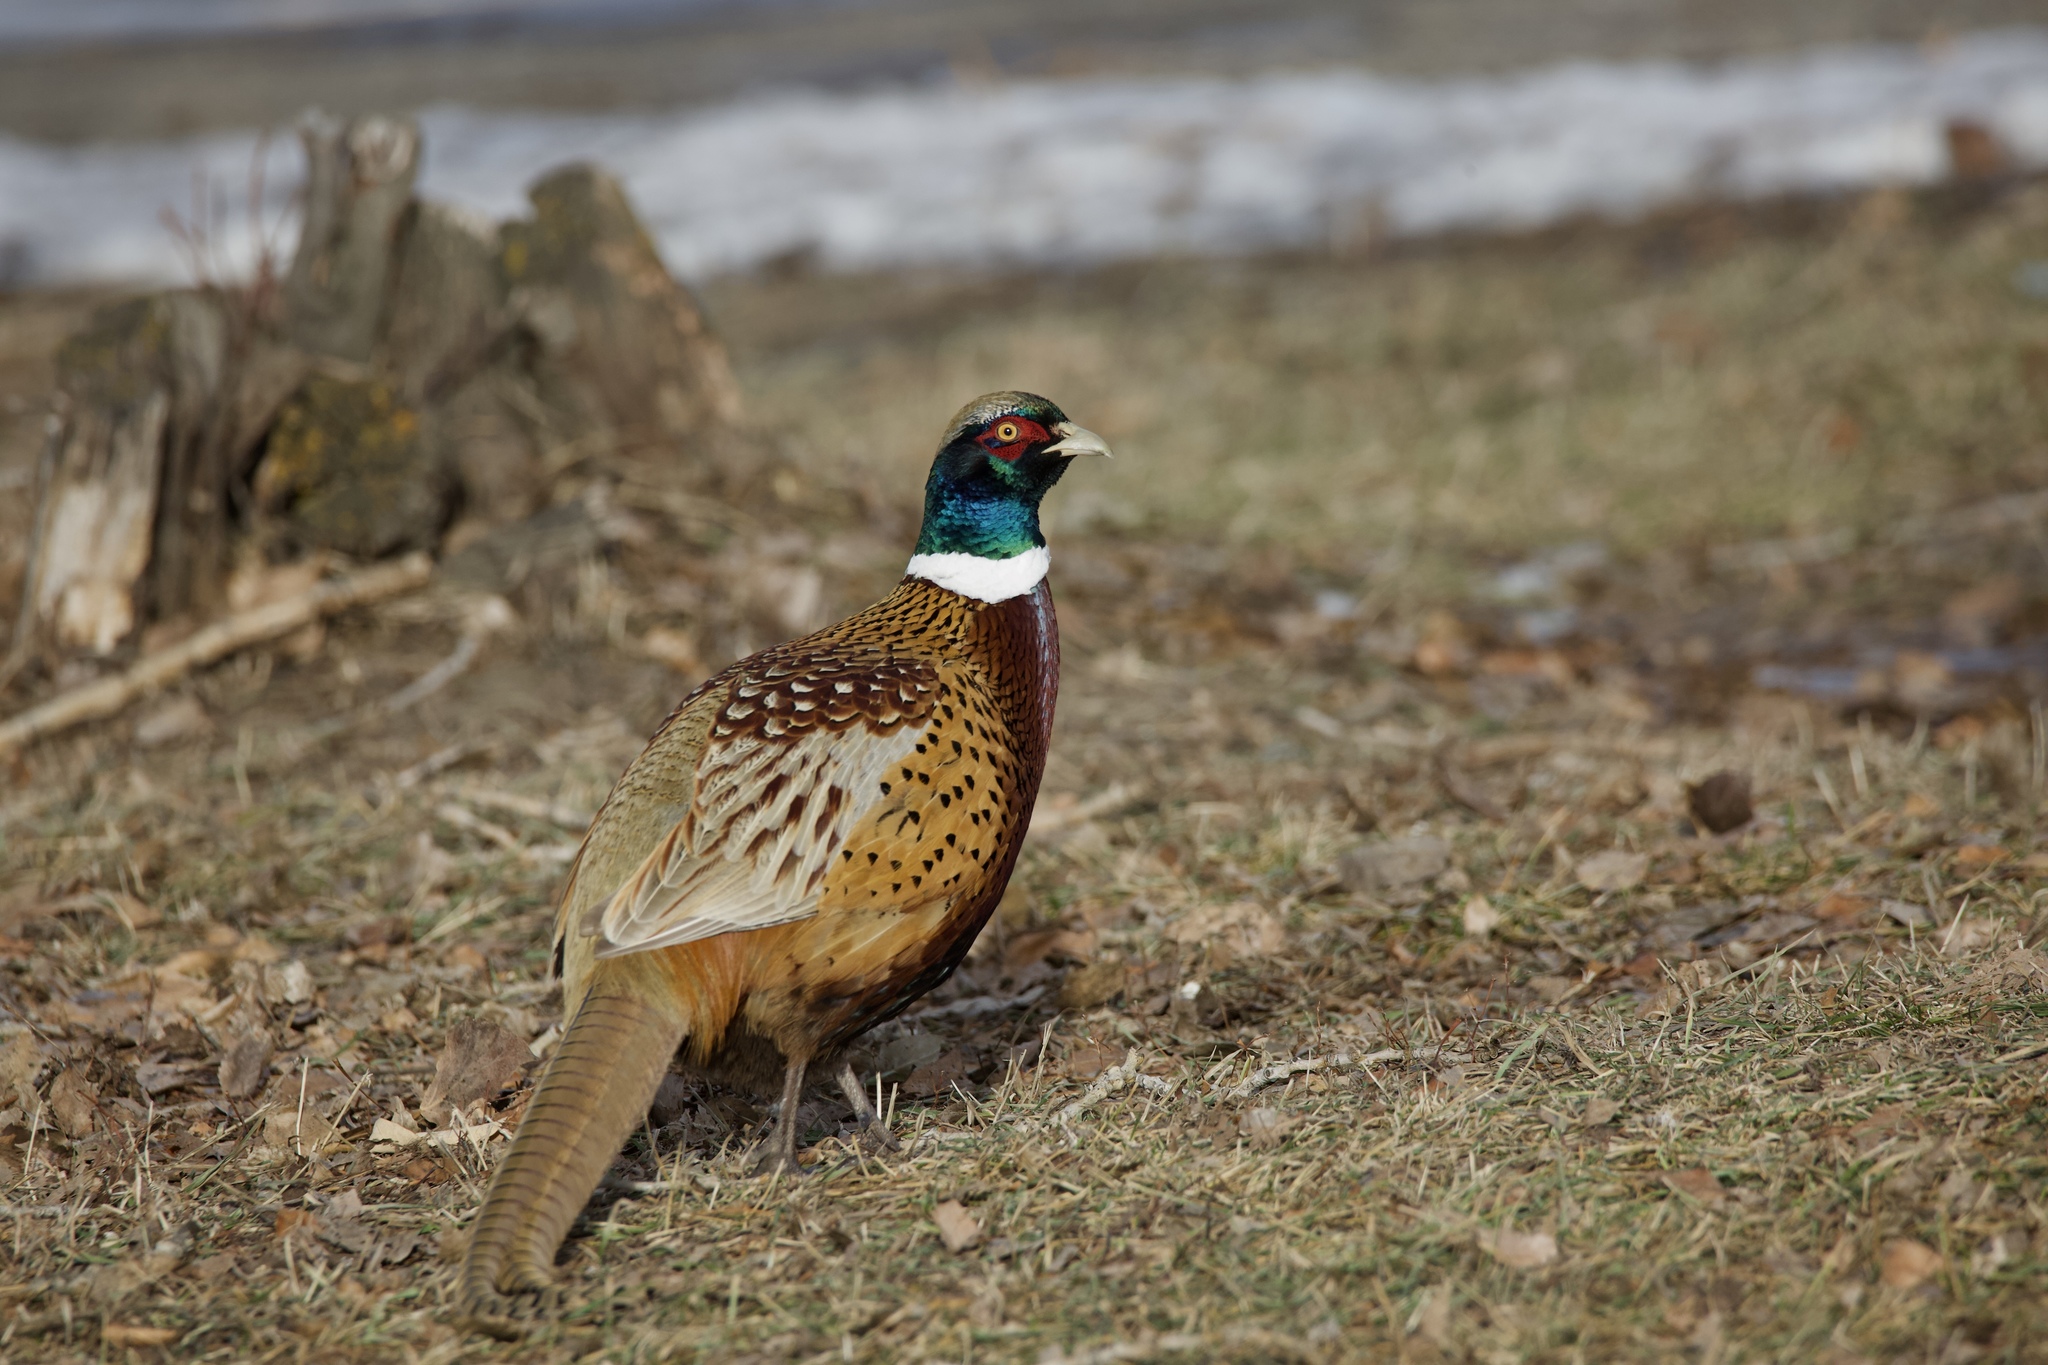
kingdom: Animalia
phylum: Chordata
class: Aves
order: Galliformes
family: Phasianidae
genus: Phasianus
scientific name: Phasianus colchicus
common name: Common pheasant
